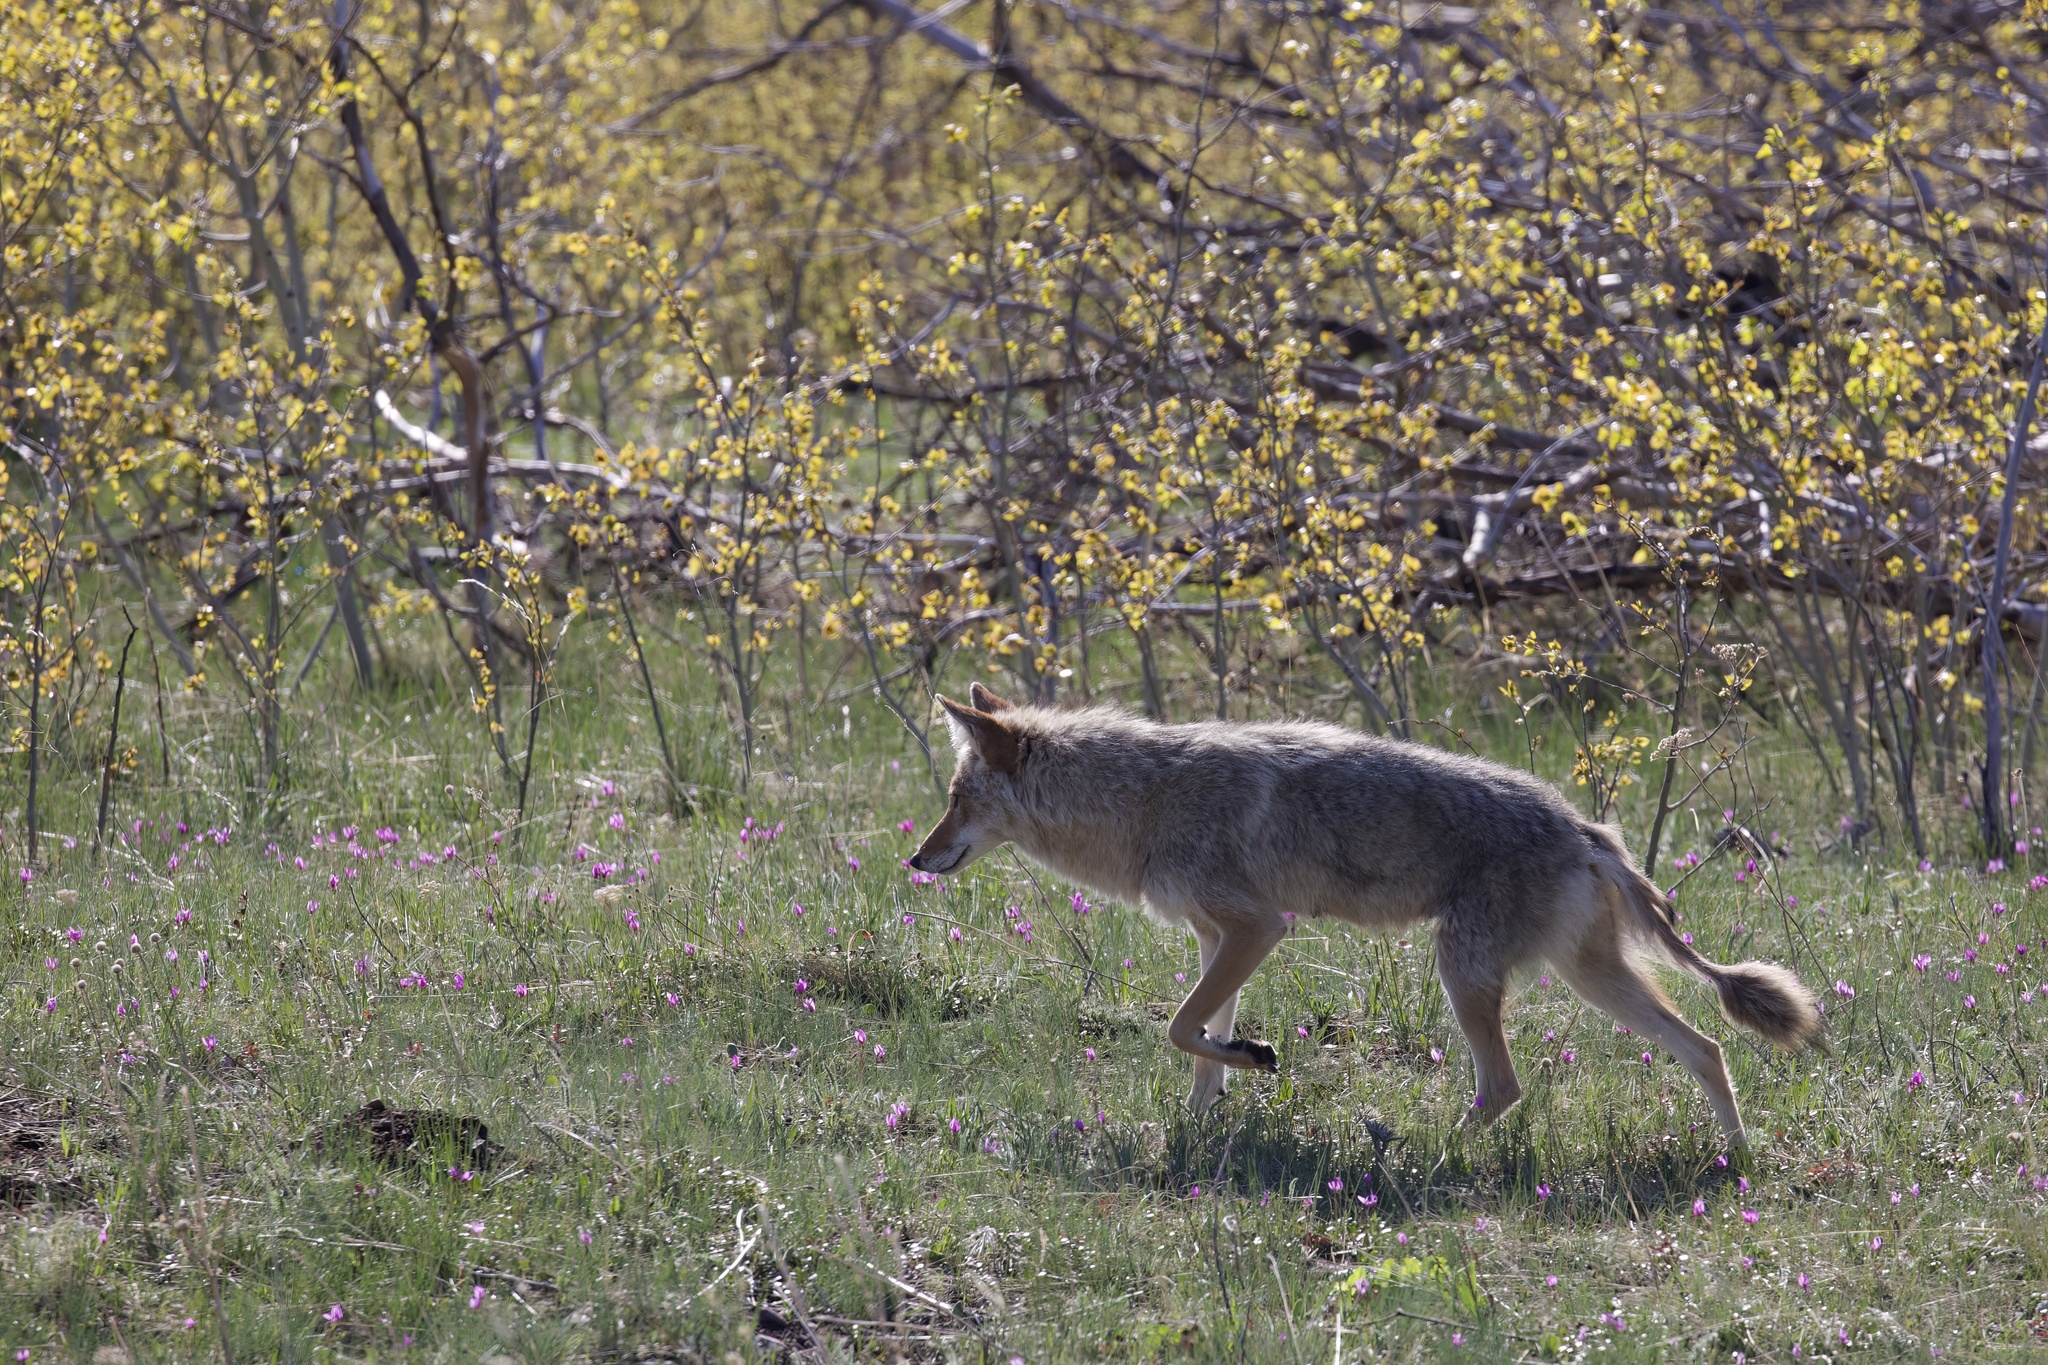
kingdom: Animalia
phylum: Chordata
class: Mammalia
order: Carnivora
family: Canidae
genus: Canis
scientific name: Canis latrans
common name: Coyote
